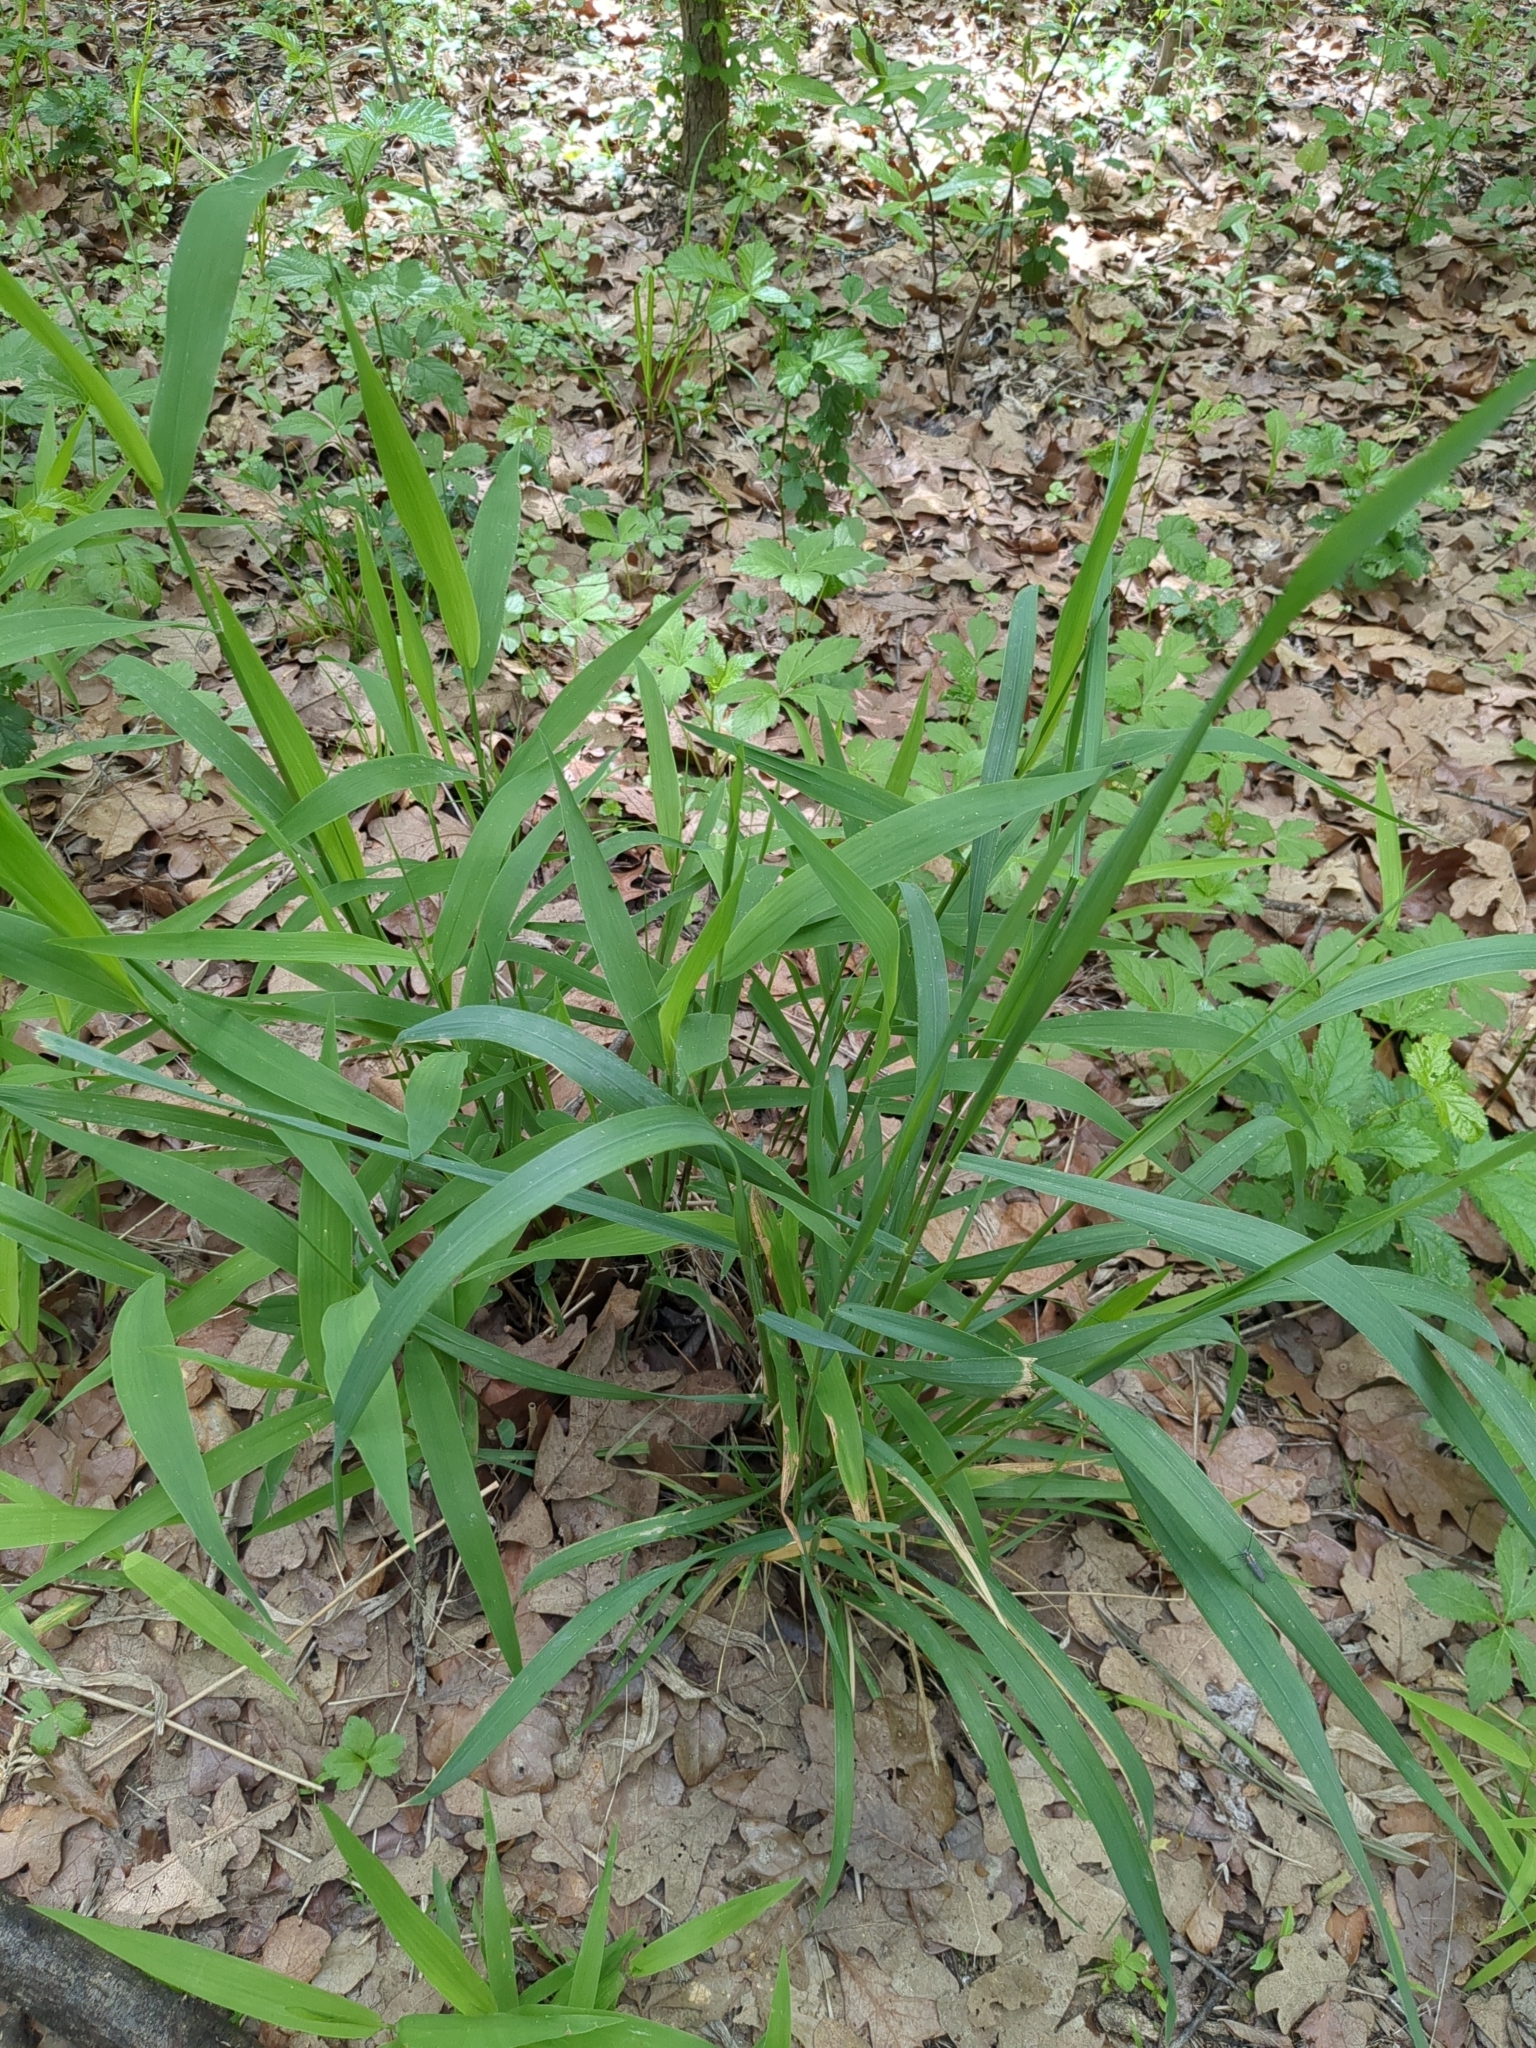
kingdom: Plantae
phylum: Tracheophyta
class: Liliopsida
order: Poales
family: Poaceae
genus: Chasmanthium
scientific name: Chasmanthium latifolium
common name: Broad-leaved chasmanthium
